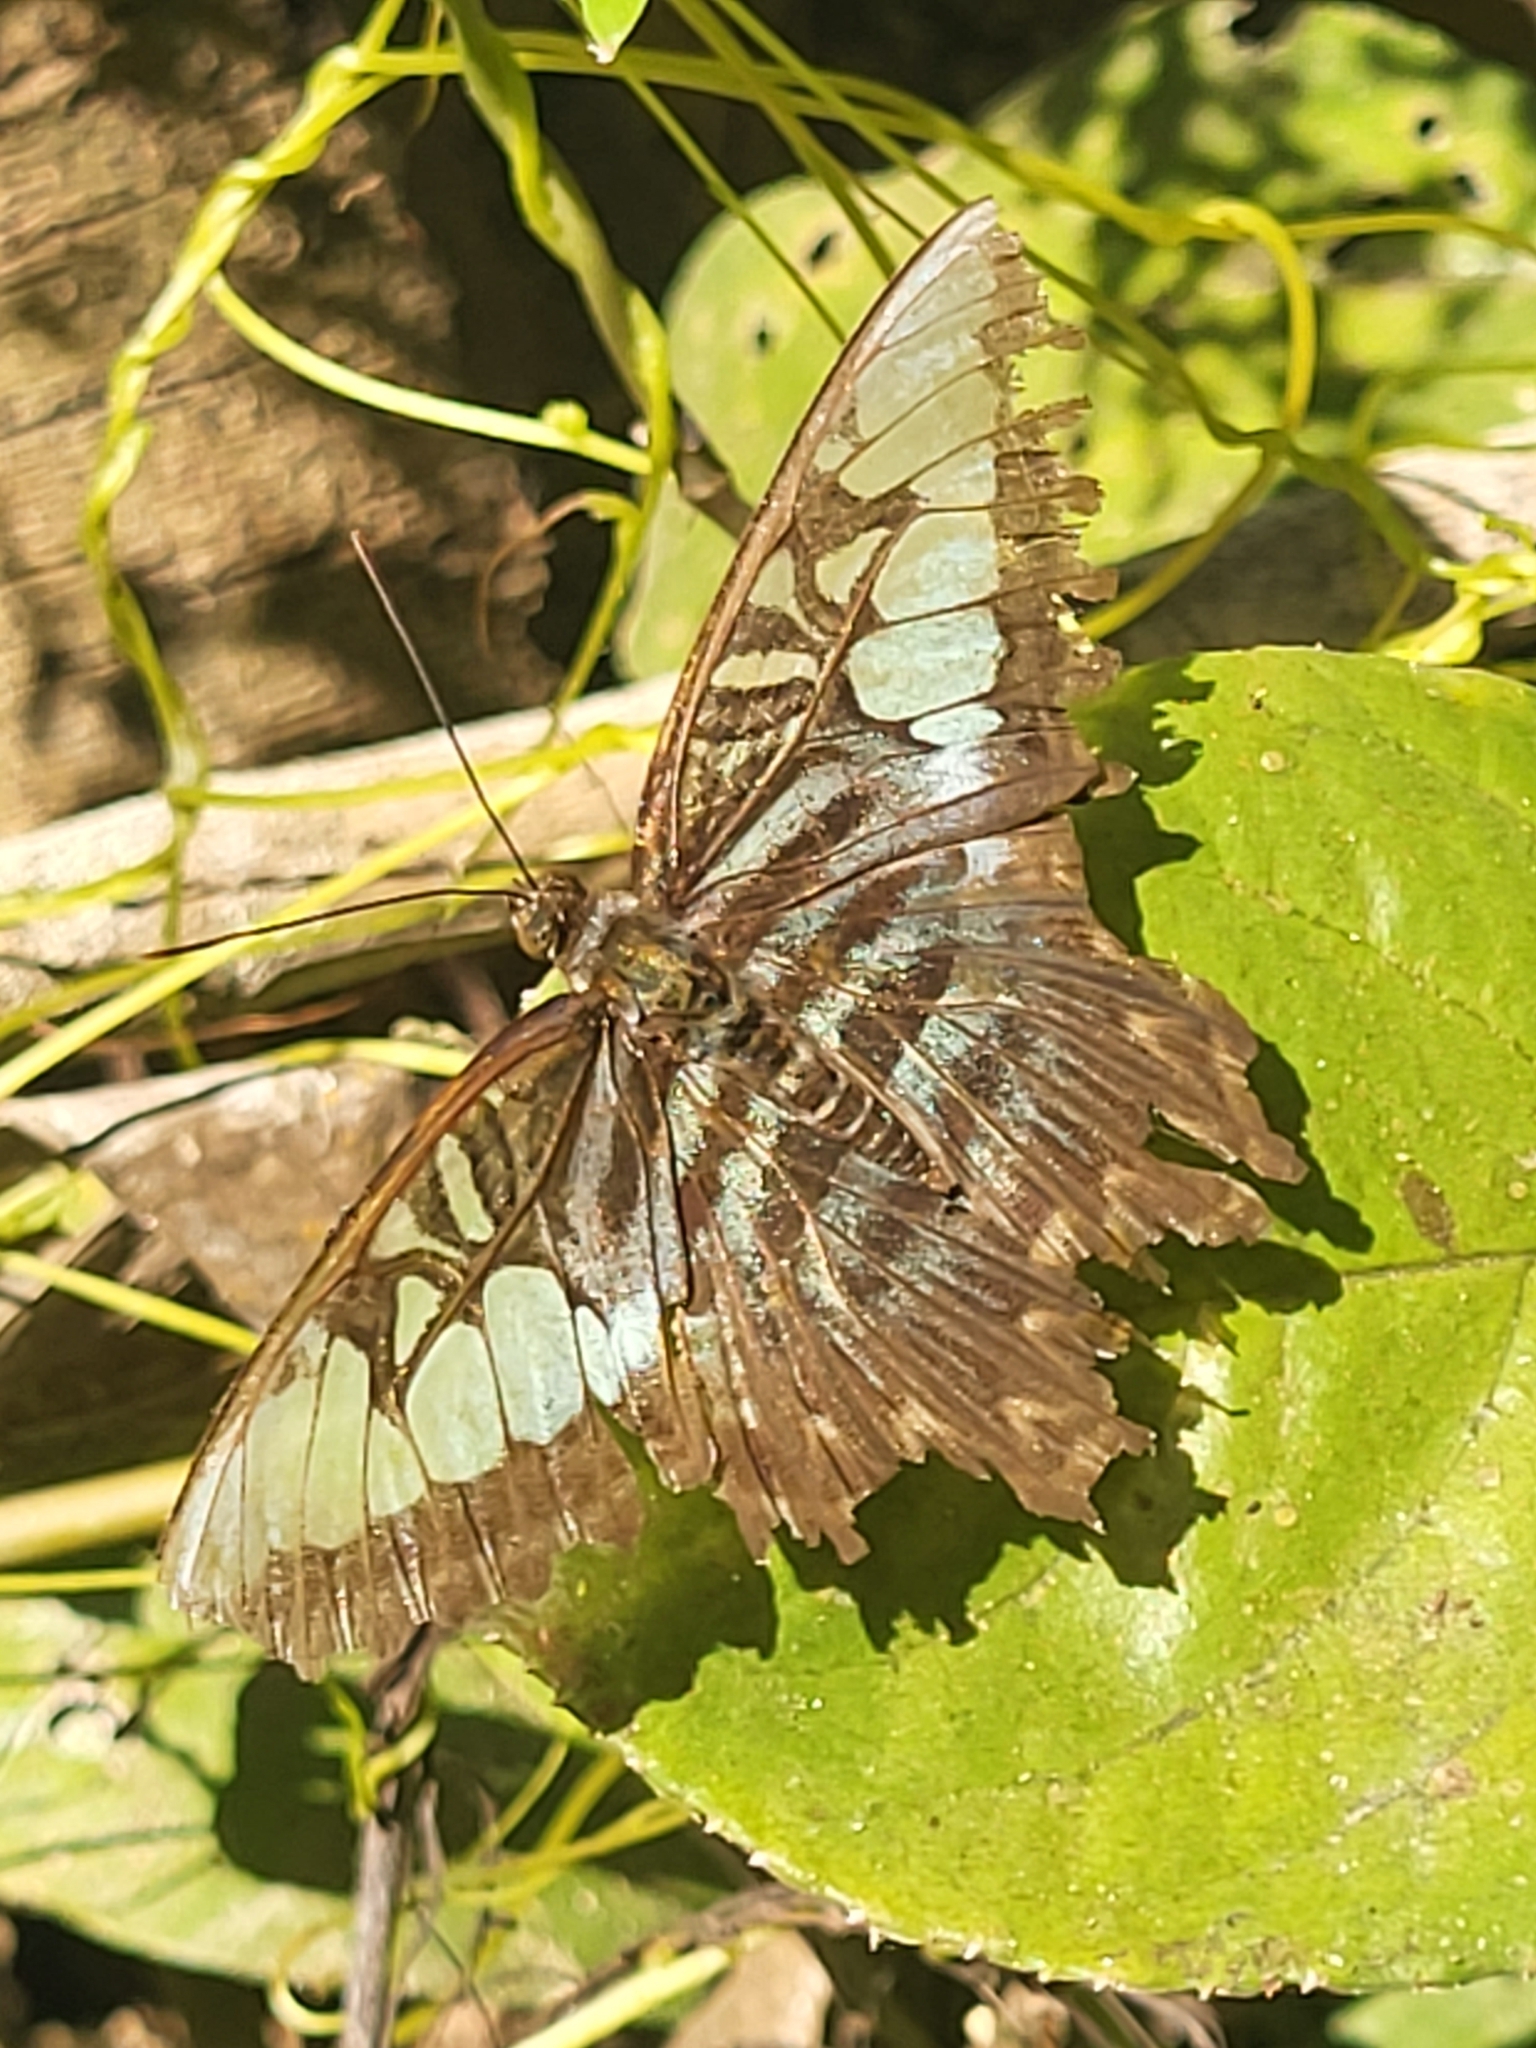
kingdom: Animalia
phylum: Arthropoda
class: Insecta
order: Lepidoptera
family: Nymphalidae
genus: Kallima
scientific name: Kallima sylvia
